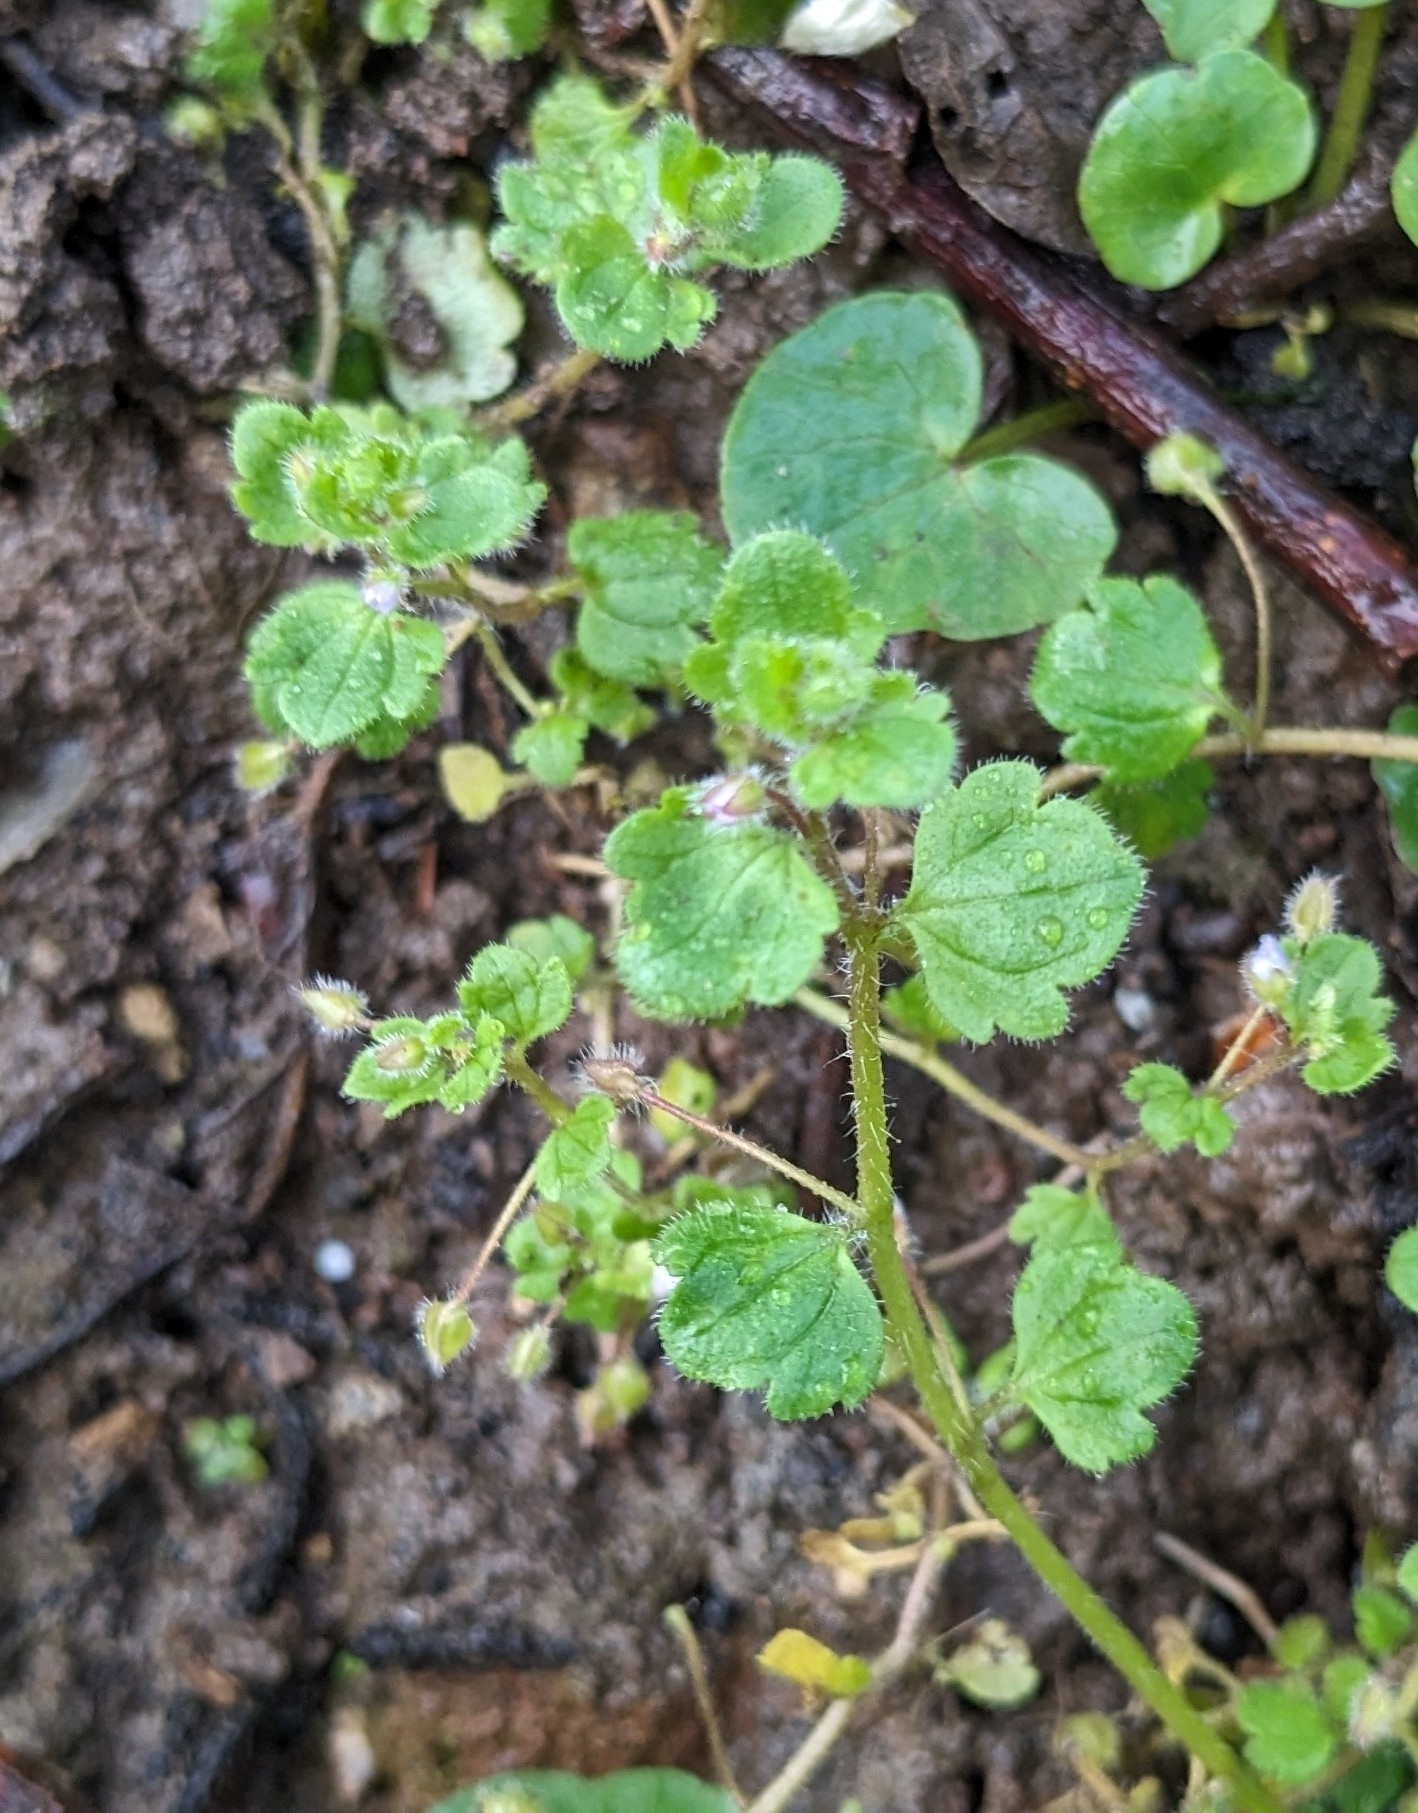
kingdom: Plantae
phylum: Tracheophyta
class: Magnoliopsida
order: Lamiales
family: Plantaginaceae
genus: Veronica
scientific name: Veronica sublobata
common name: False ivy-leaved speedwell
